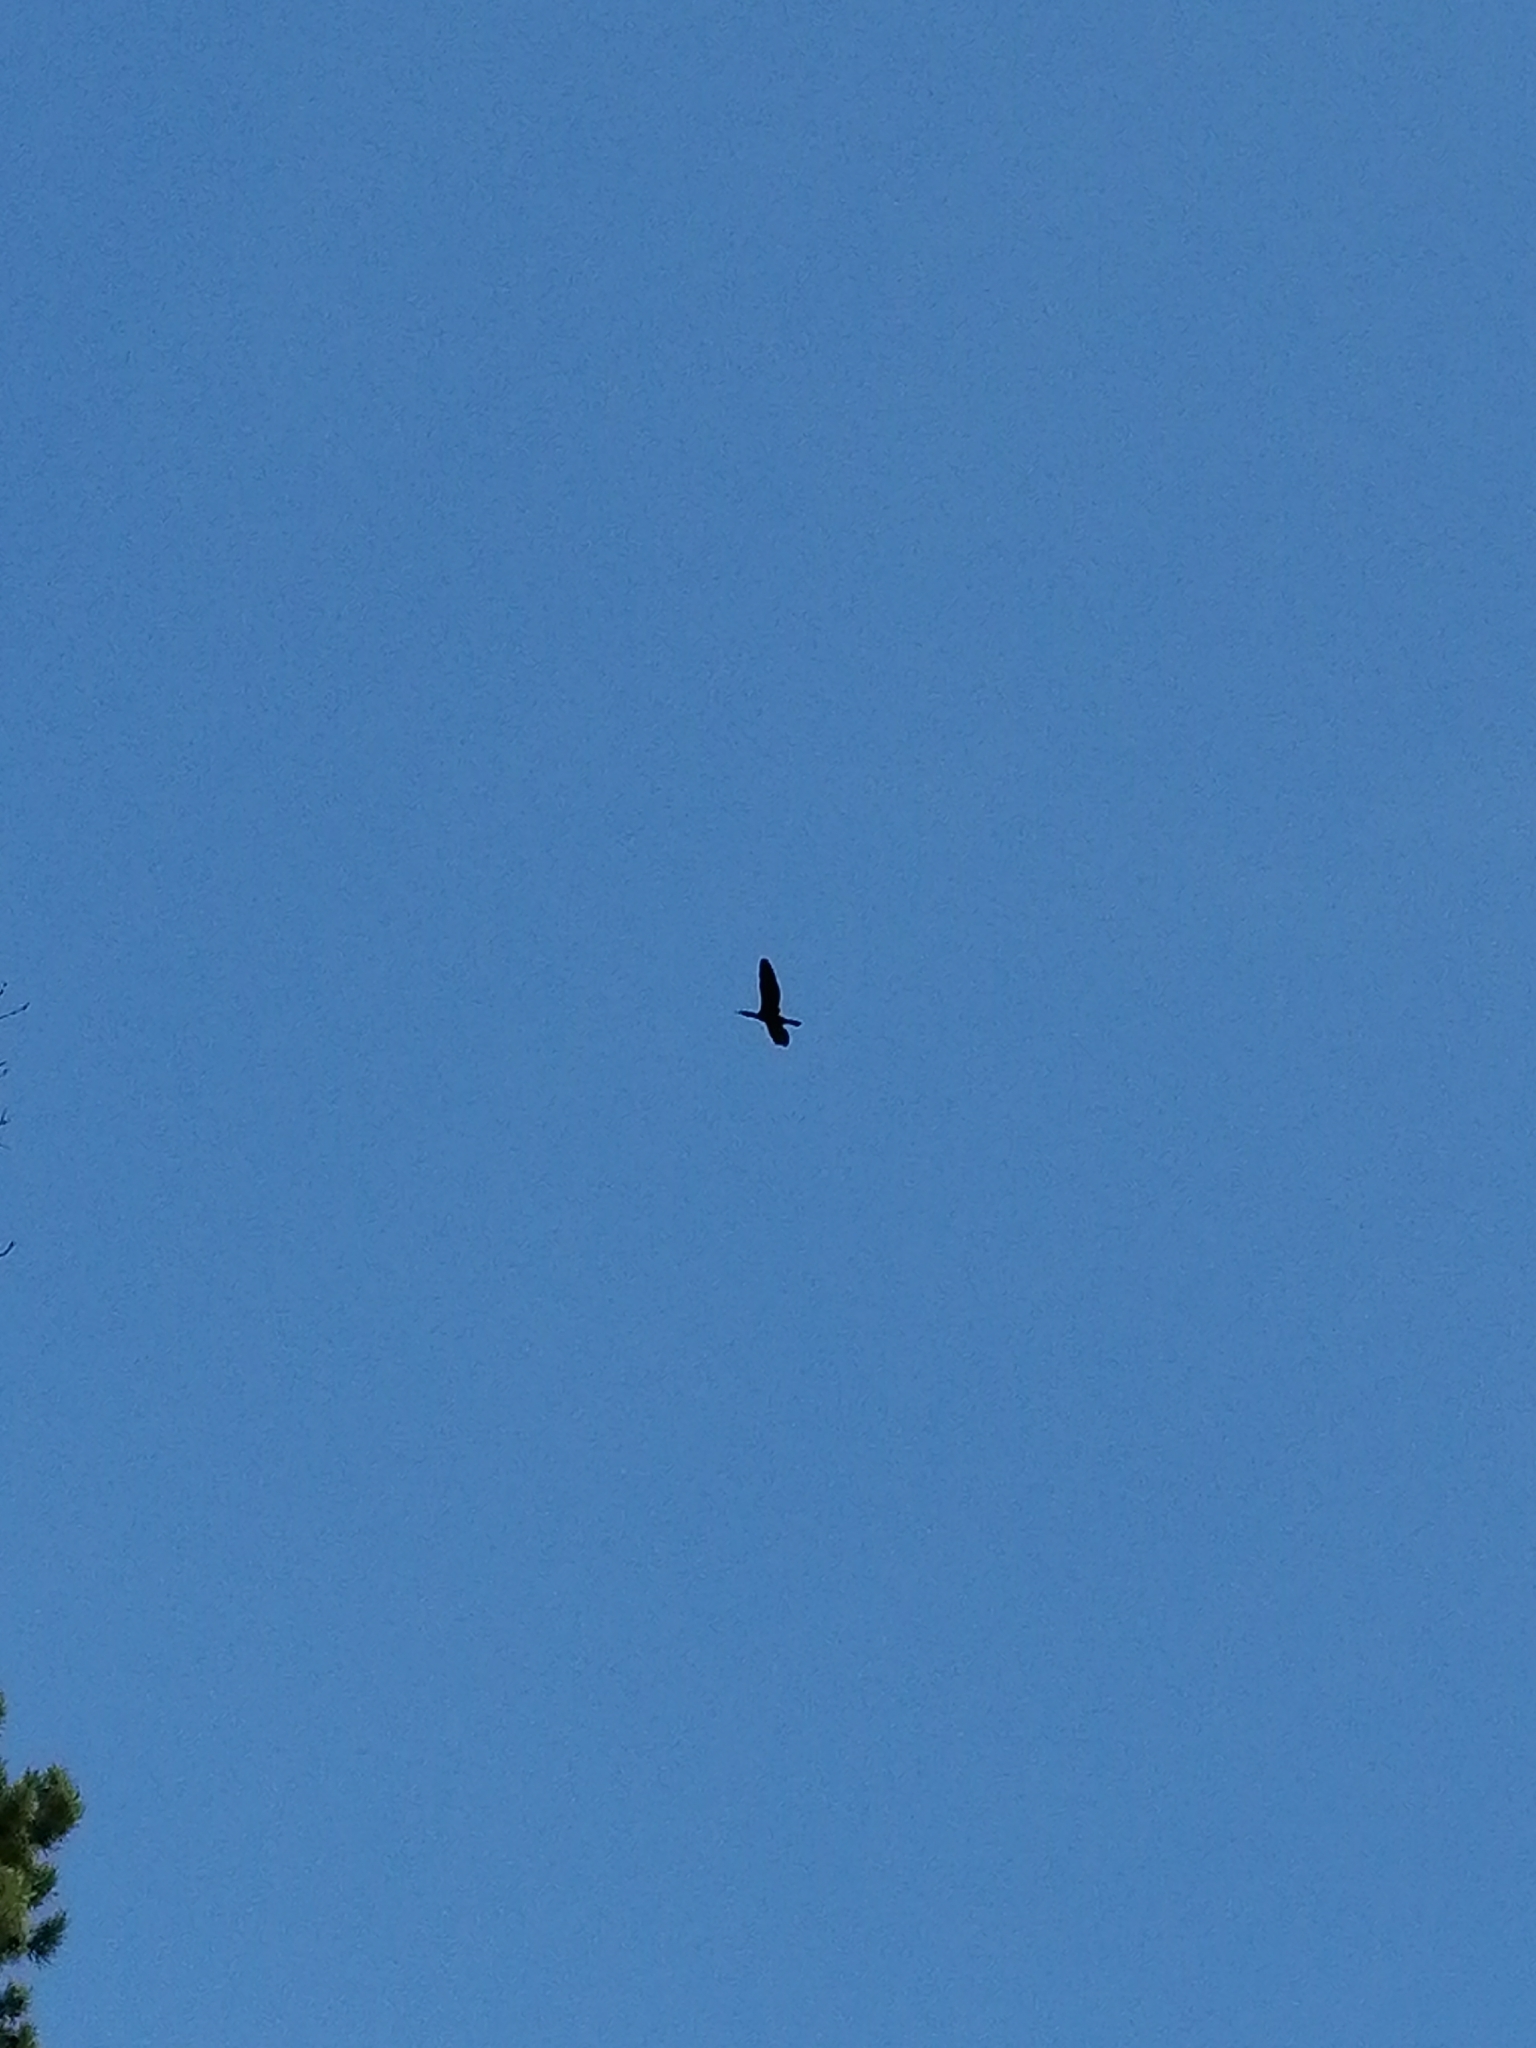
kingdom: Animalia
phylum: Chordata
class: Aves
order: Suliformes
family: Phalacrocoracidae
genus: Phalacrocorax
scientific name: Phalacrocorax carbo
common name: Great cormorant
